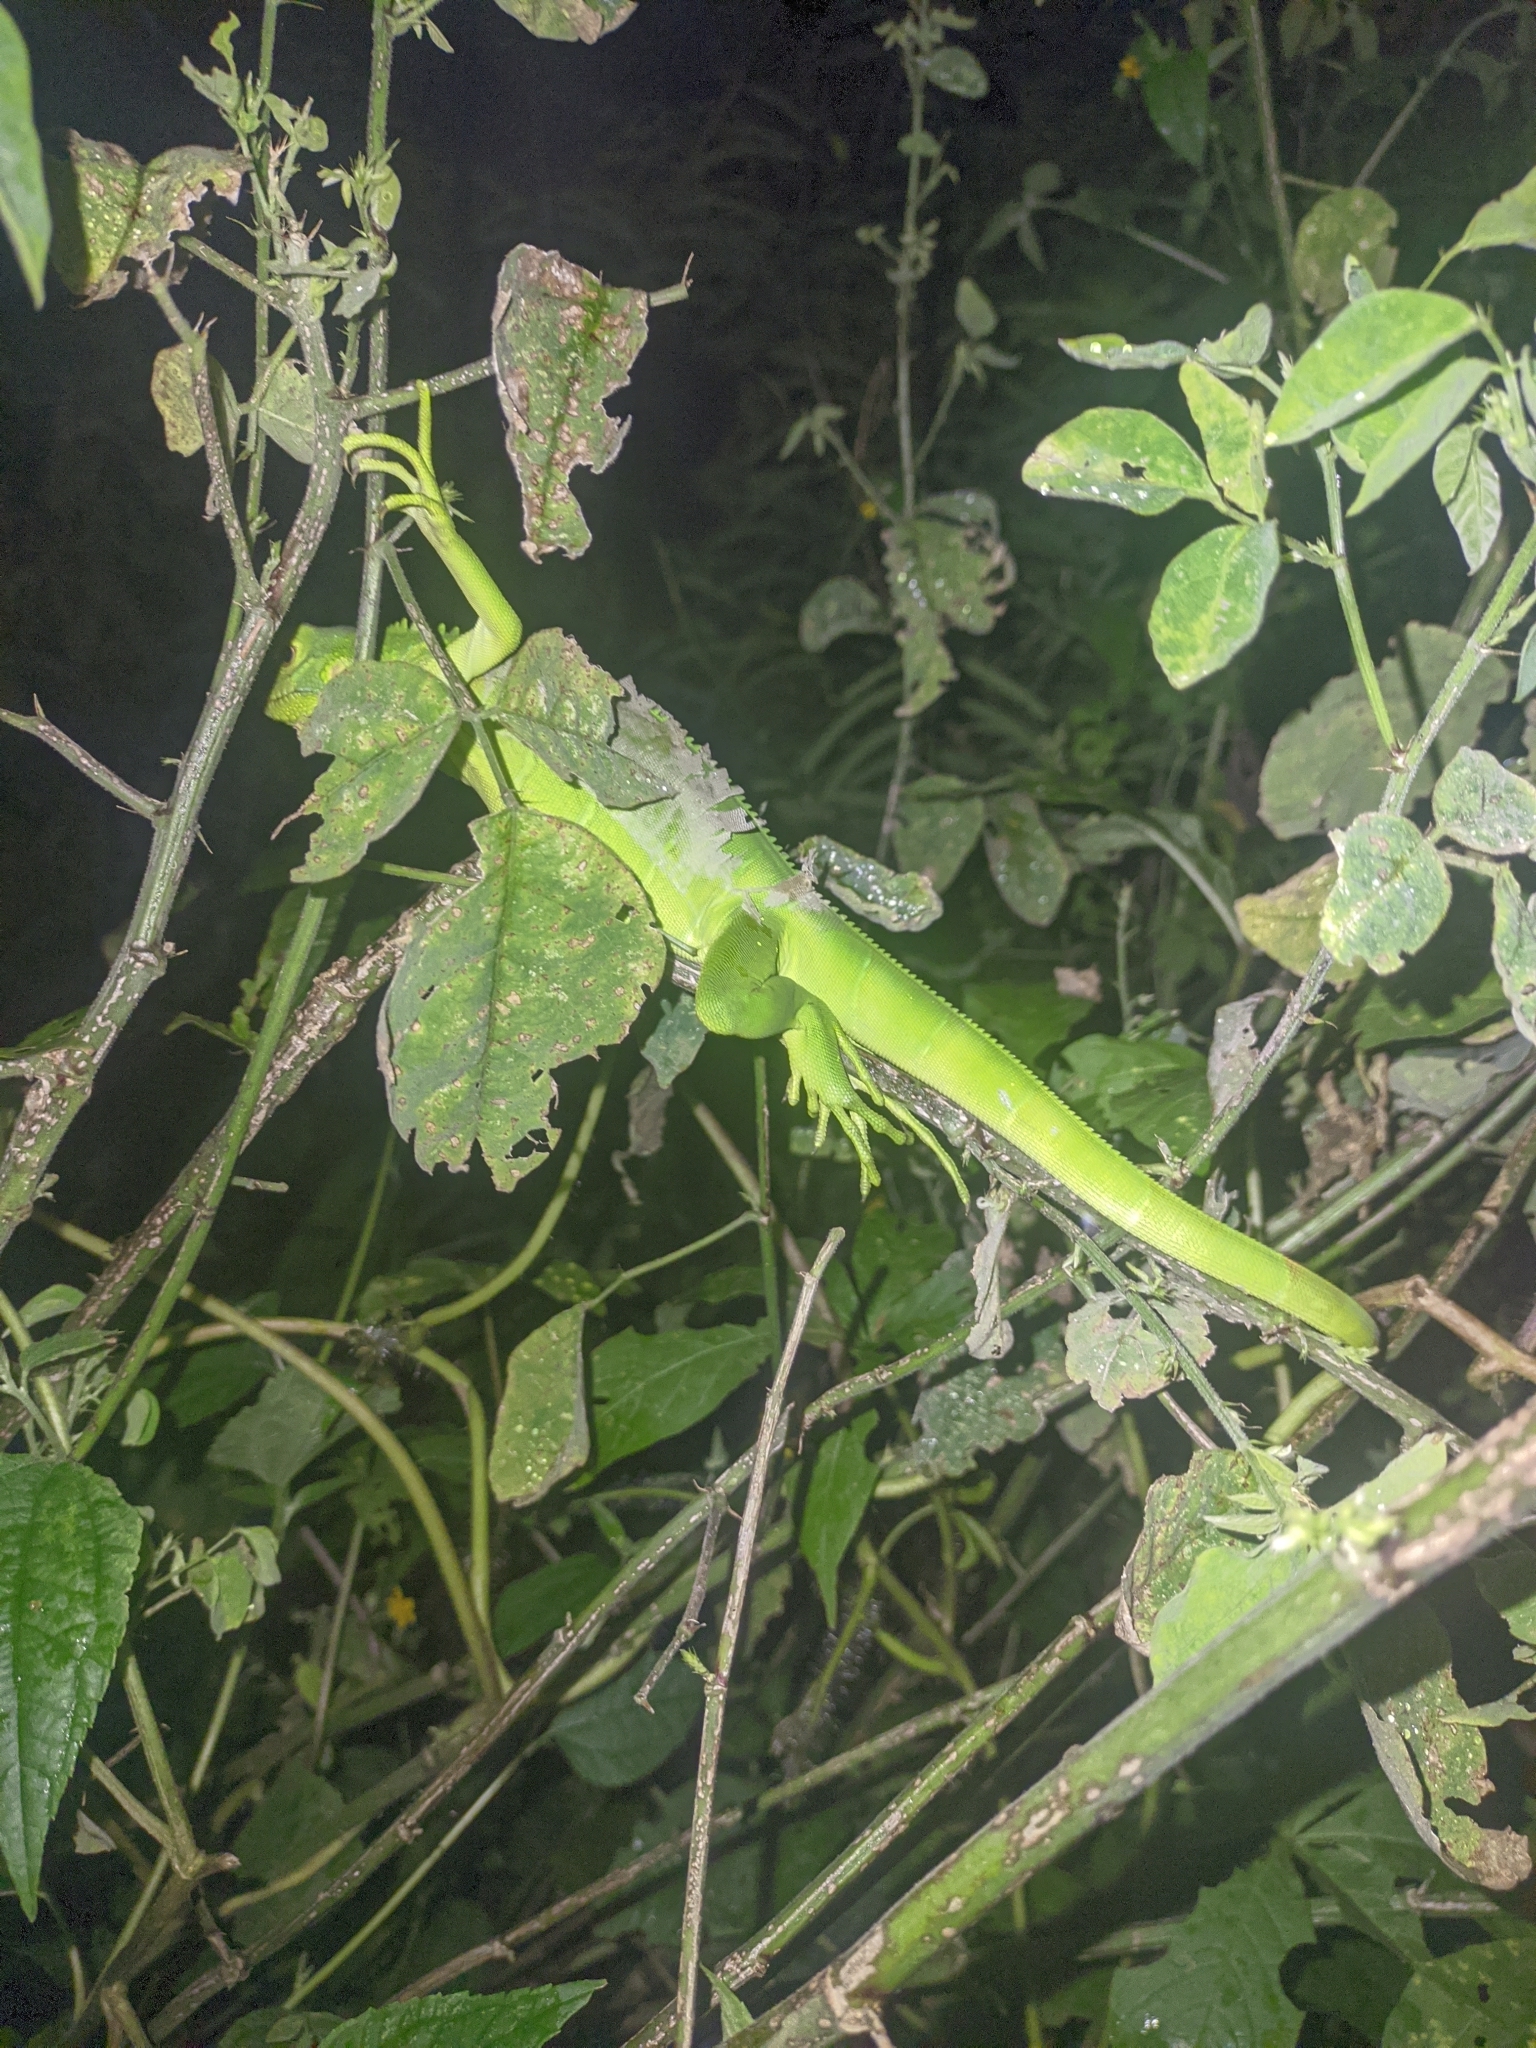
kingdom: Animalia
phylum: Chordata
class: Squamata
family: Iguanidae
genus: Iguana
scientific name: Iguana iguana
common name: Green iguana
